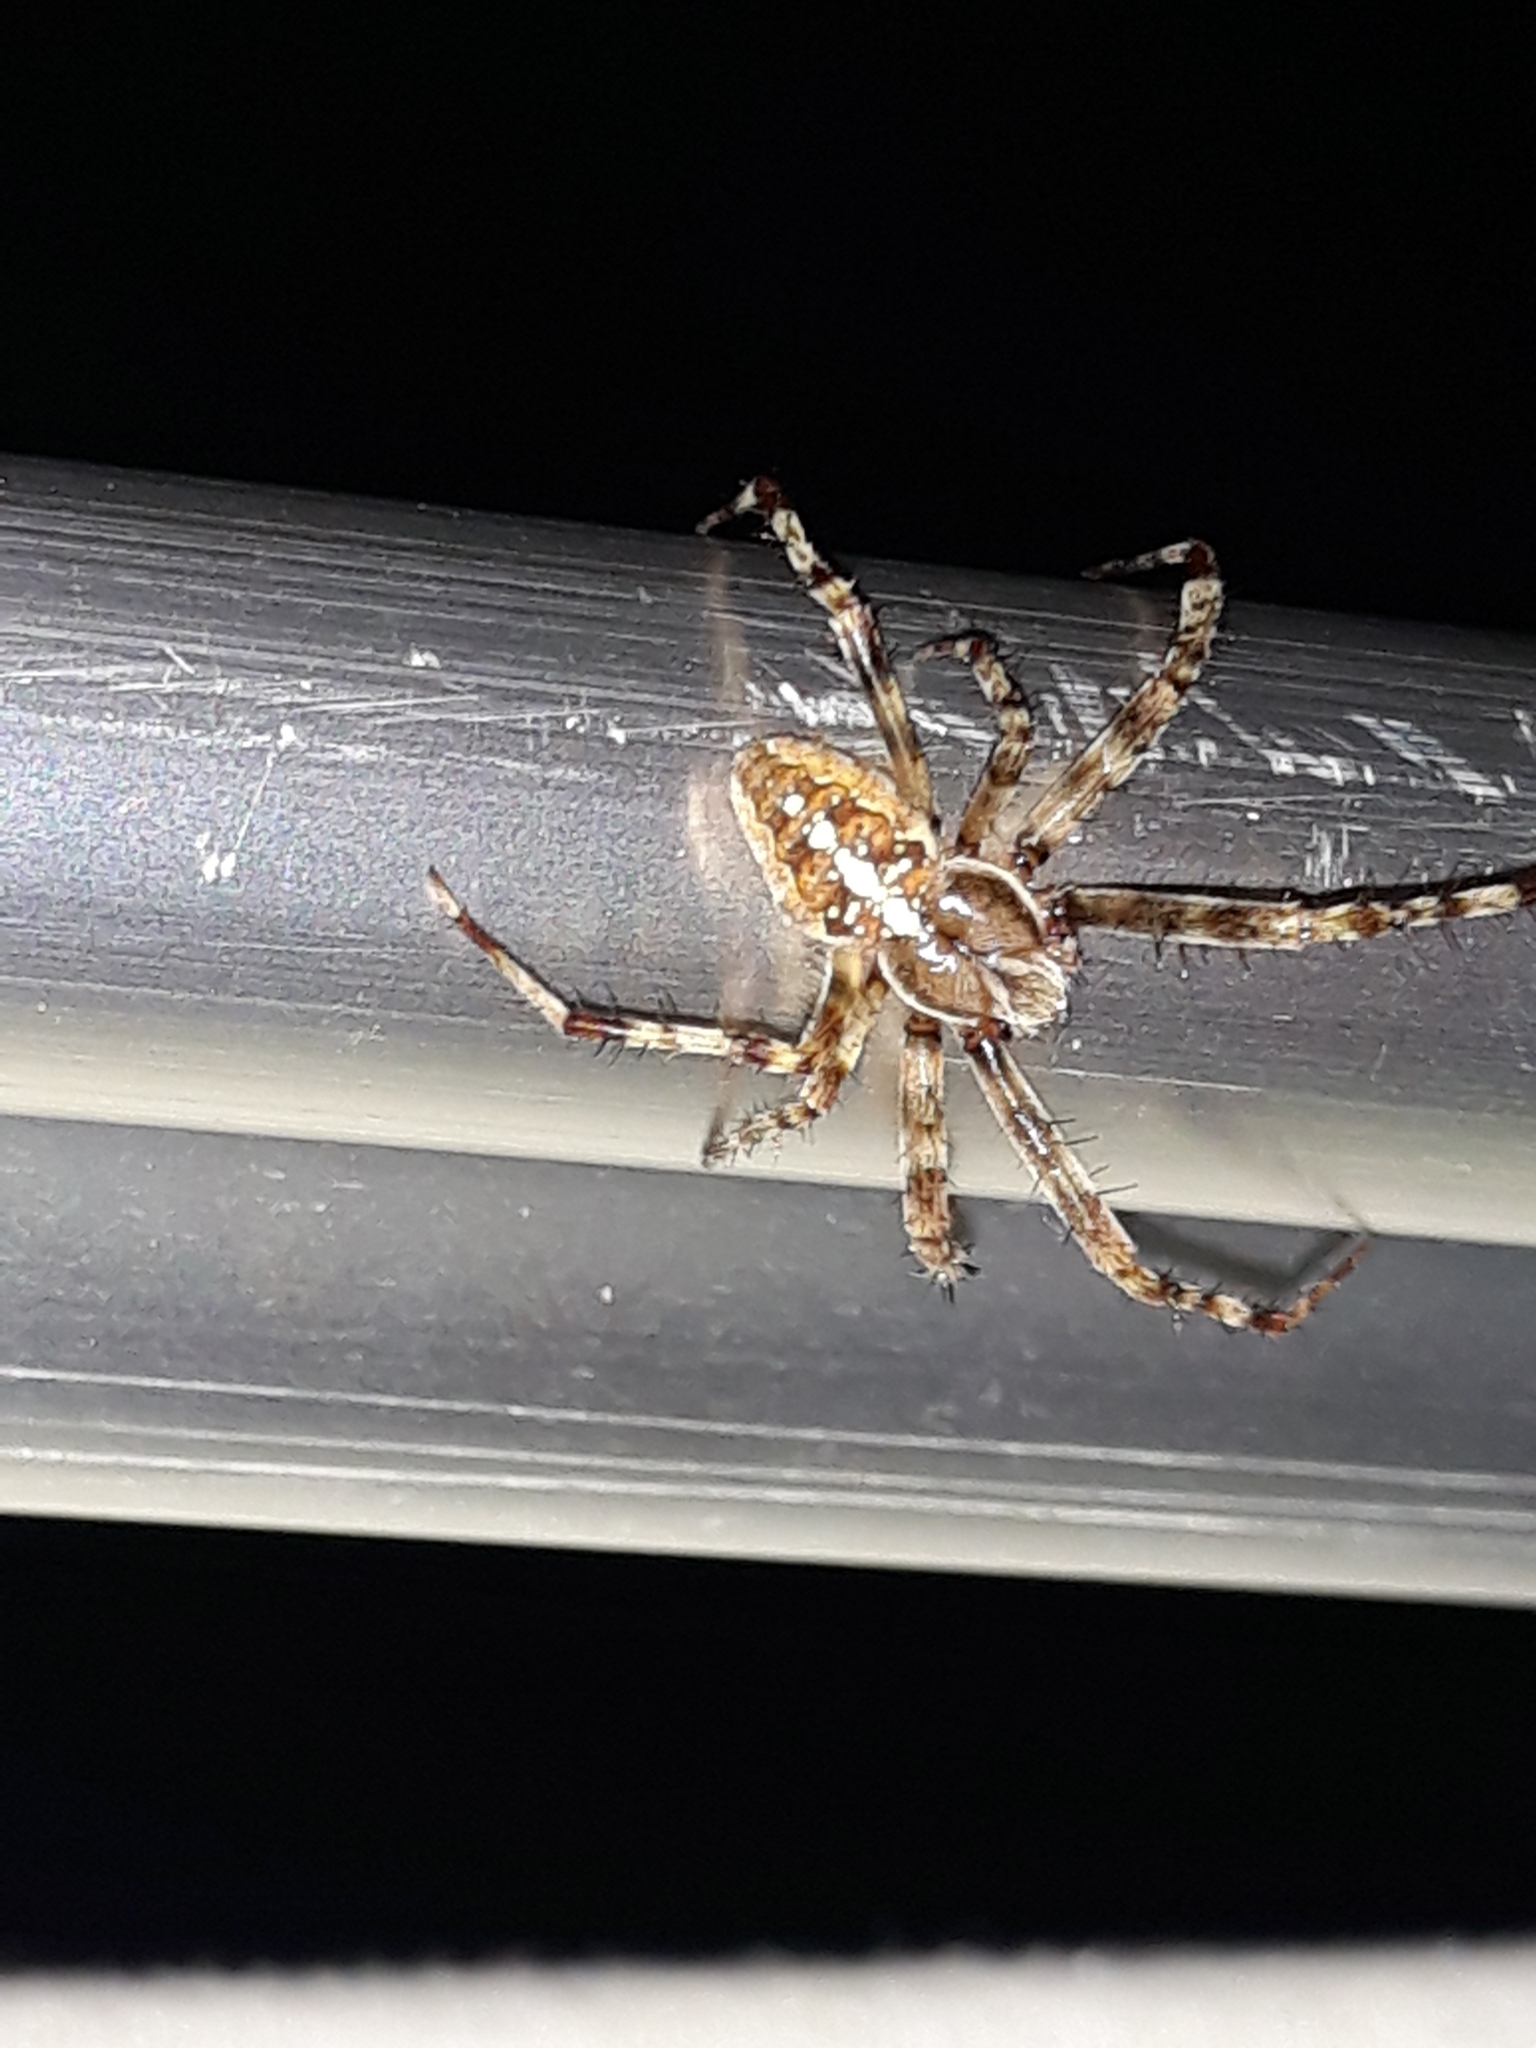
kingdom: Animalia
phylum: Arthropoda
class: Arachnida
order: Araneae
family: Araneidae
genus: Araneus
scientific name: Araneus diadematus
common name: Cross orbweaver
